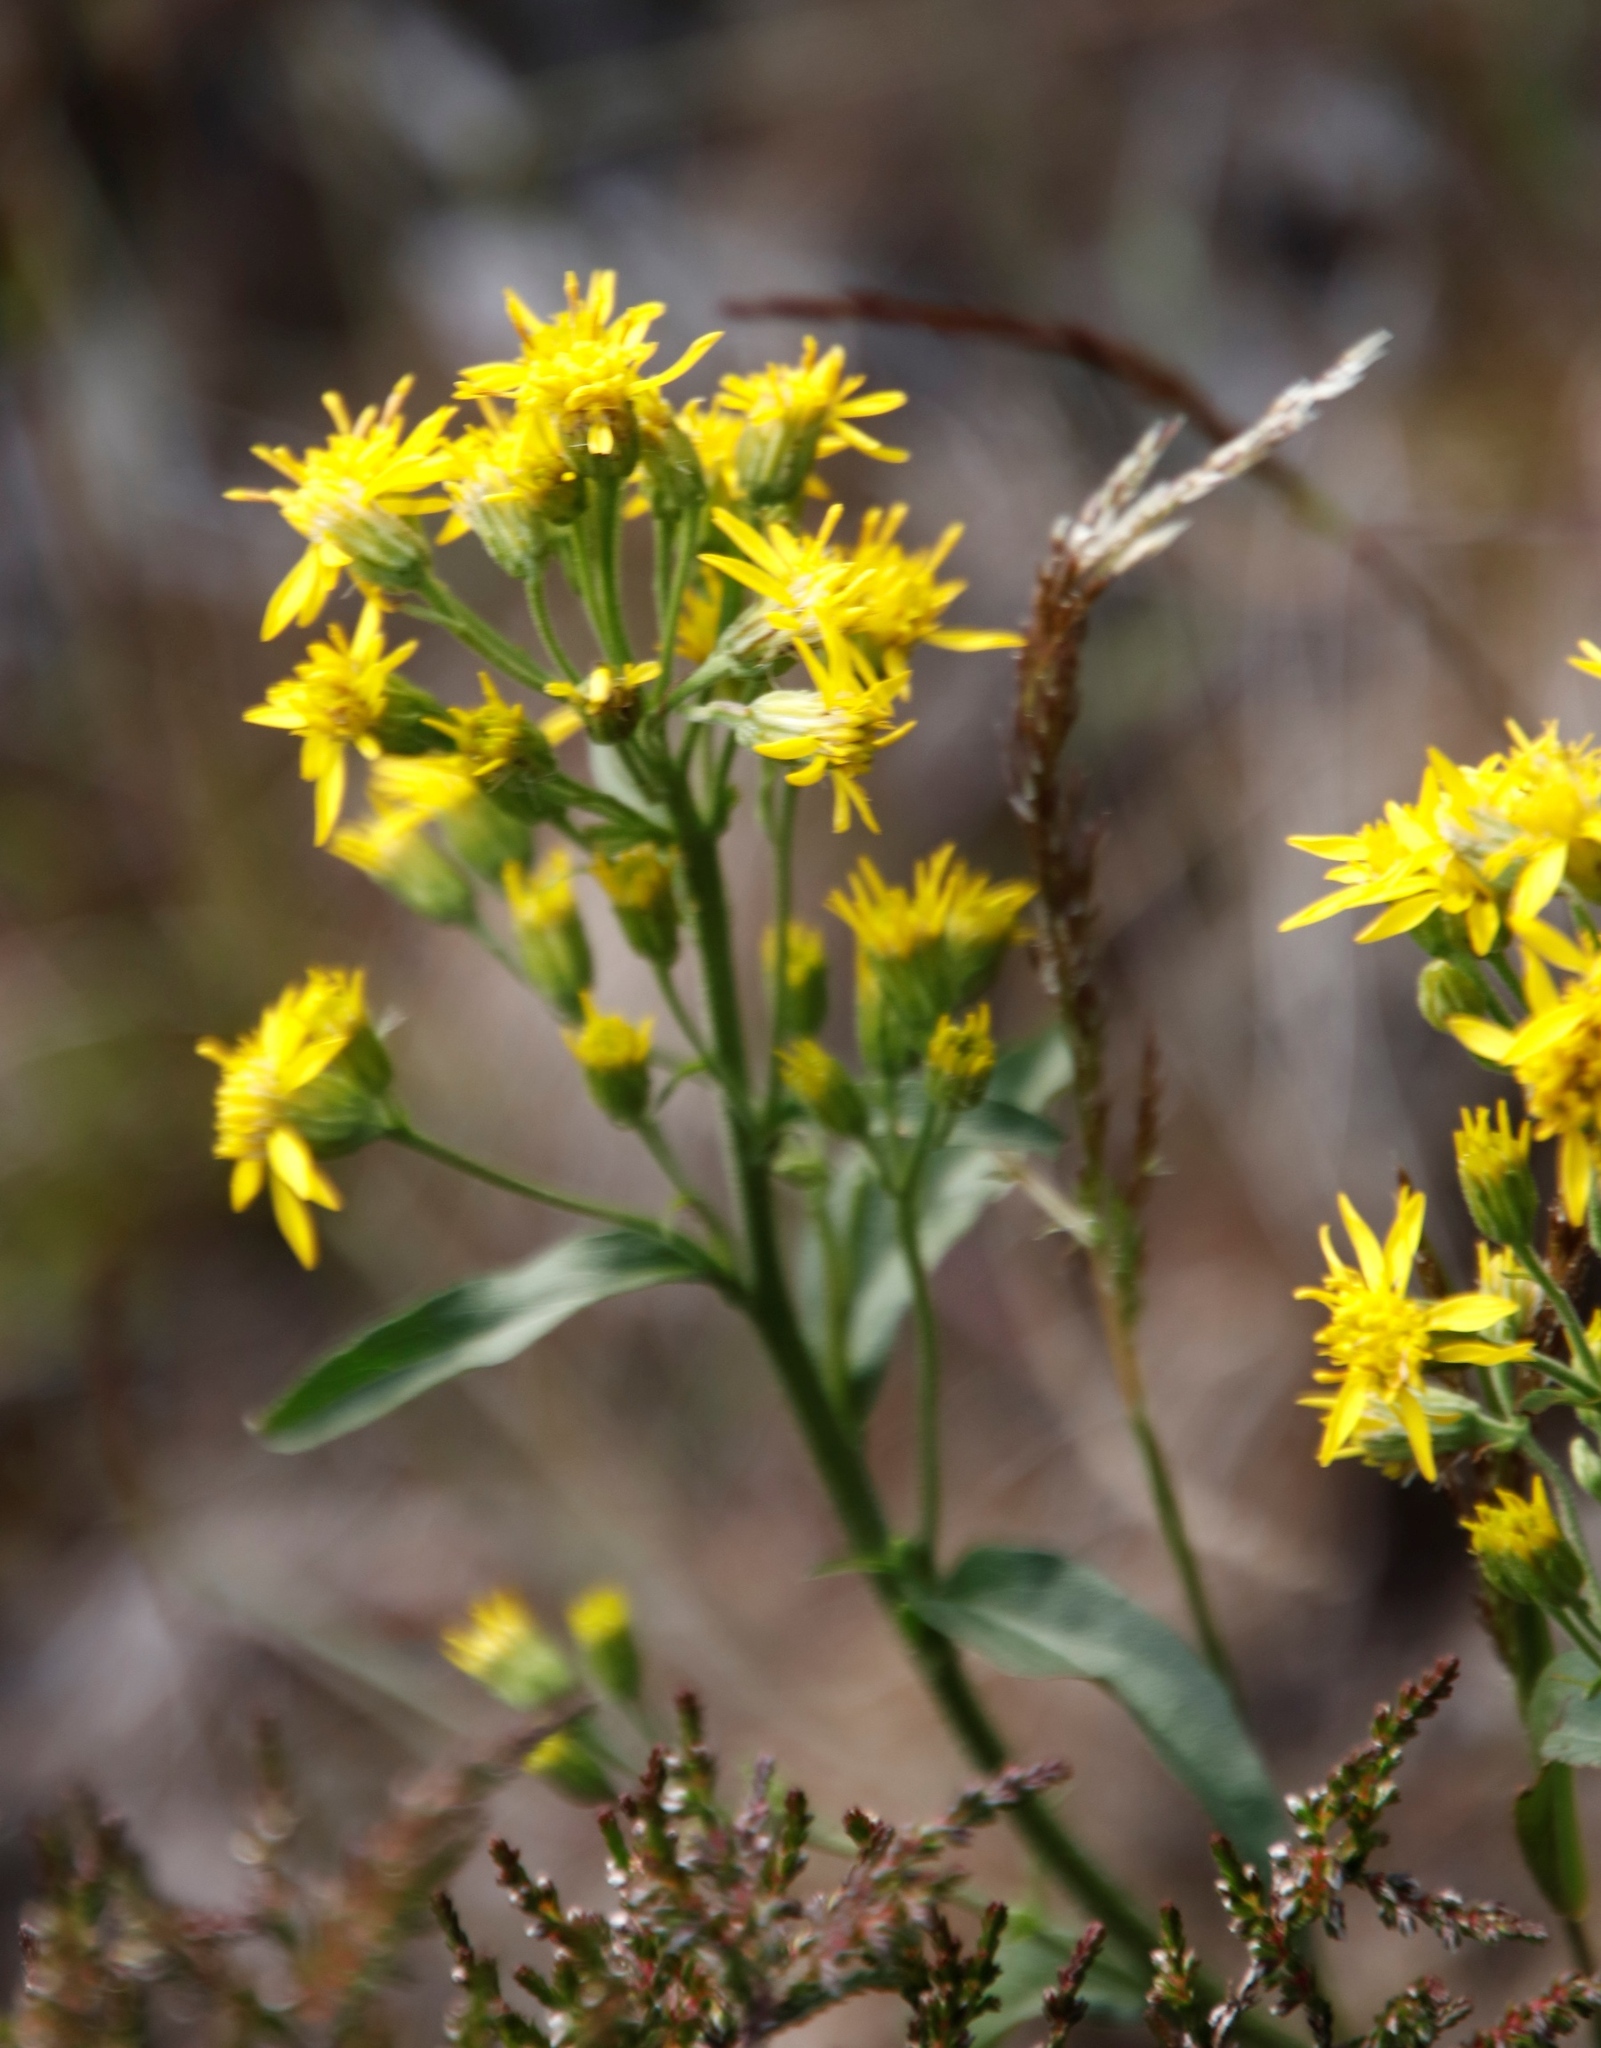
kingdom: Plantae
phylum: Tracheophyta
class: Magnoliopsida
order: Asterales
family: Asteraceae
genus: Solidago
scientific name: Solidago virgaurea
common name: Goldenrod
